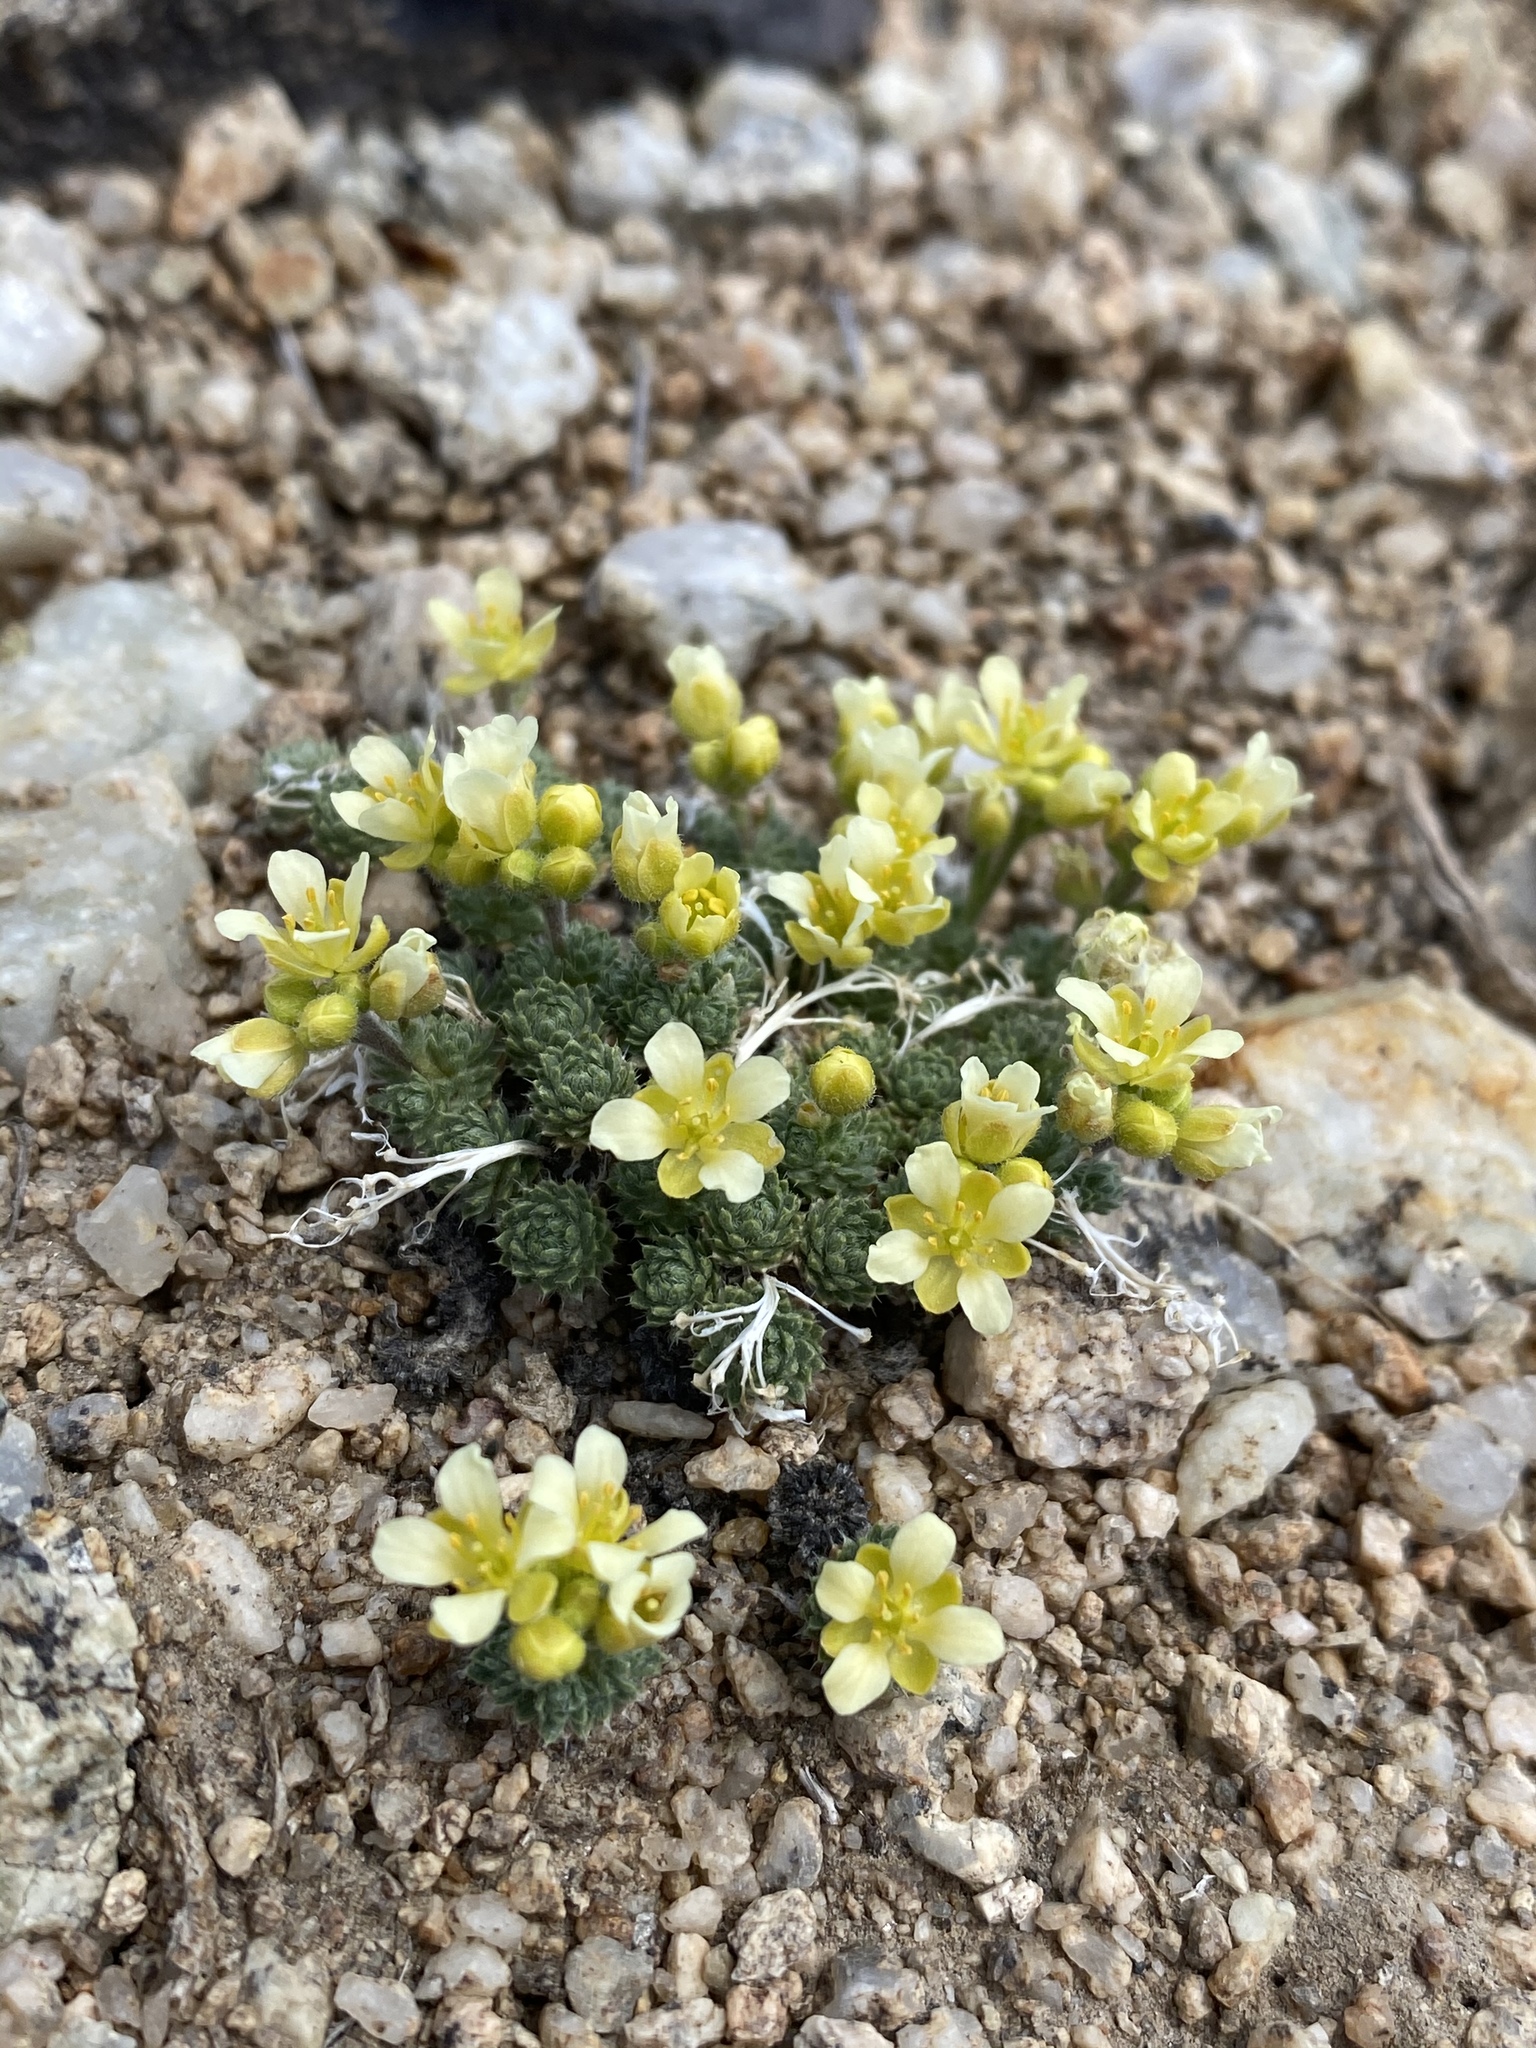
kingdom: Plantae
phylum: Tracheophyta
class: Magnoliopsida
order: Brassicales
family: Brassicaceae
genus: Cusickiella
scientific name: Cusickiella quadricostata
